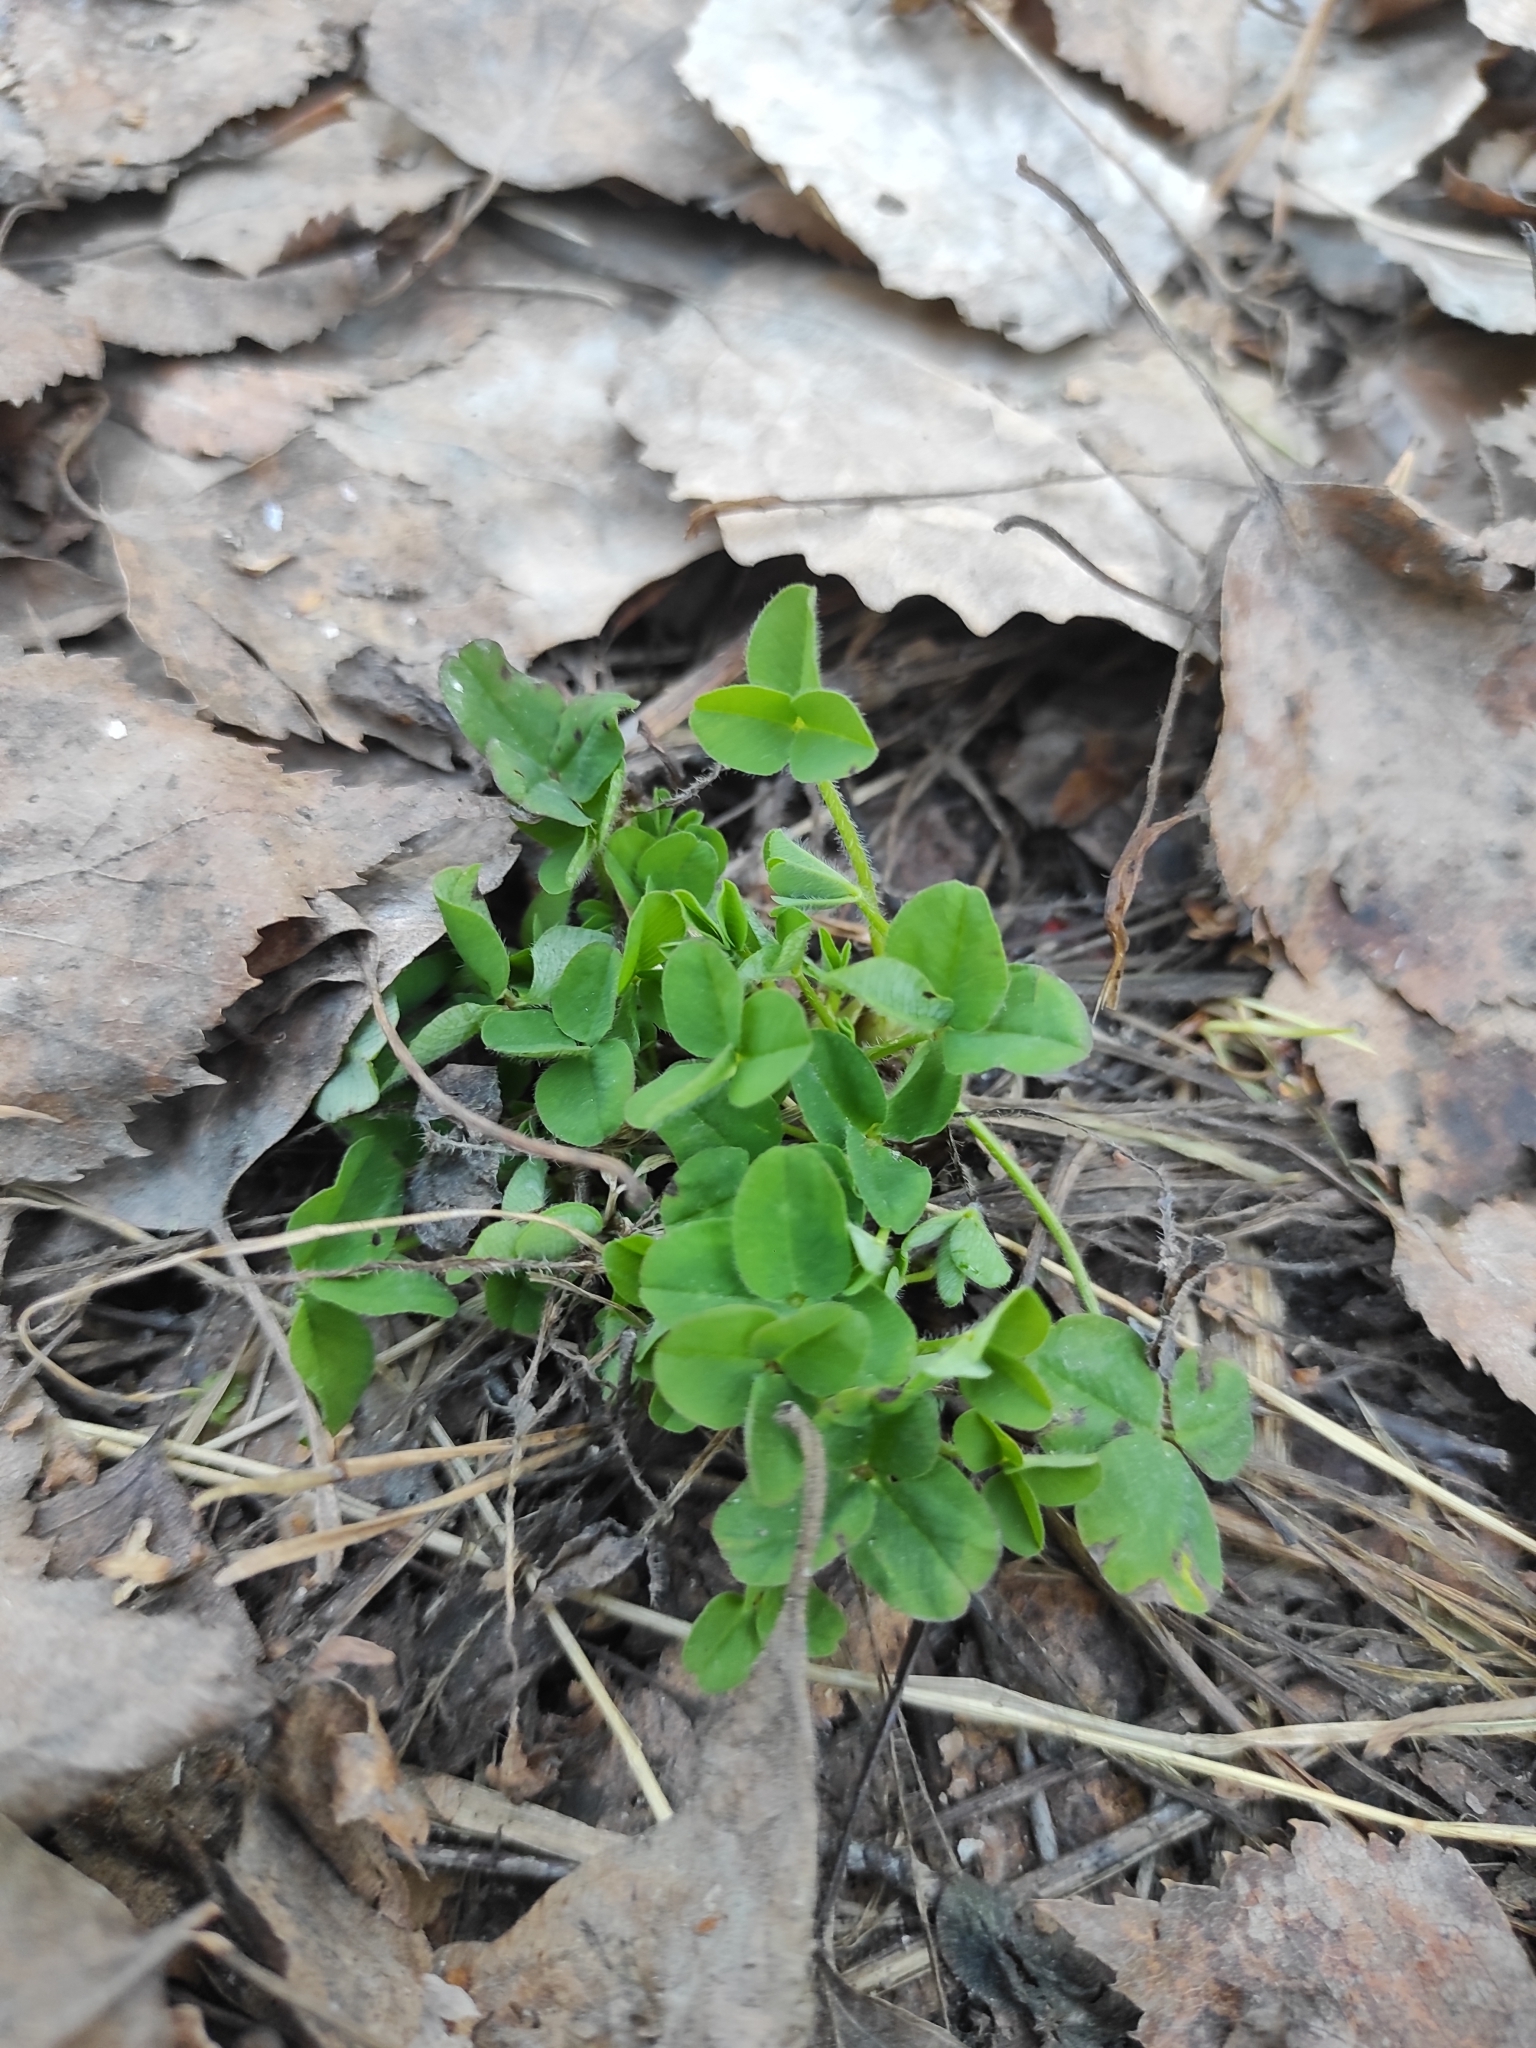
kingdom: Plantae
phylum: Tracheophyta
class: Magnoliopsida
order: Fabales
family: Fabaceae
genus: Trifolium
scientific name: Trifolium pratense
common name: Red clover
